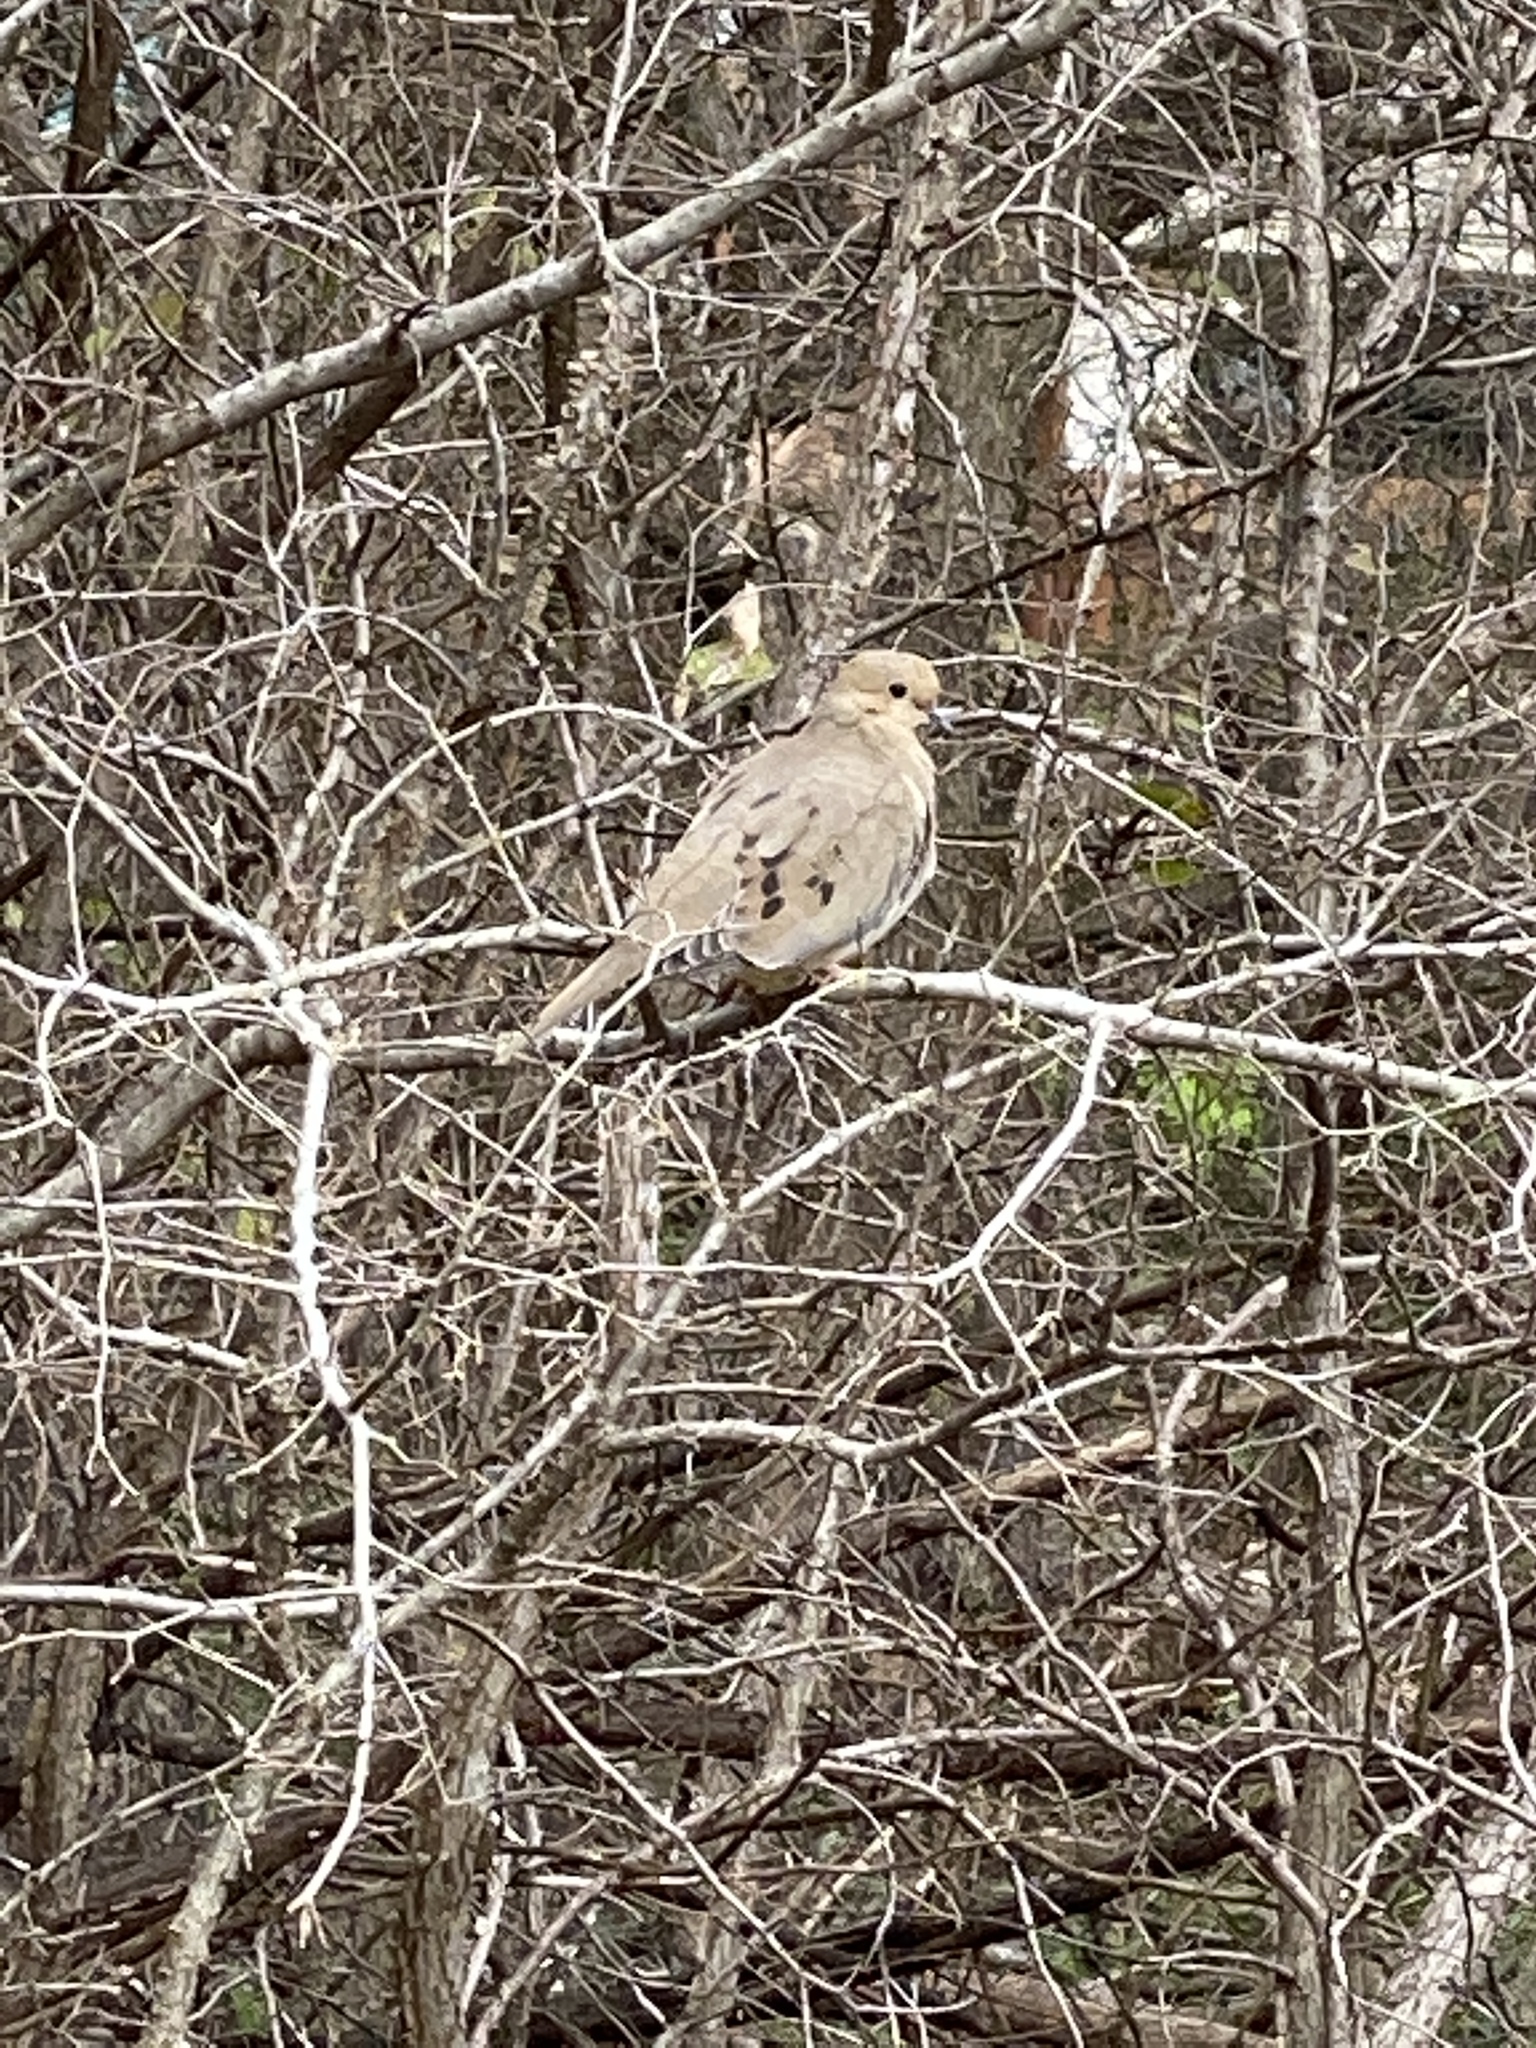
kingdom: Animalia
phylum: Chordata
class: Aves
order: Columbiformes
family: Columbidae
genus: Zenaida
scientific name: Zenaida macroura
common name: Mourning dove
